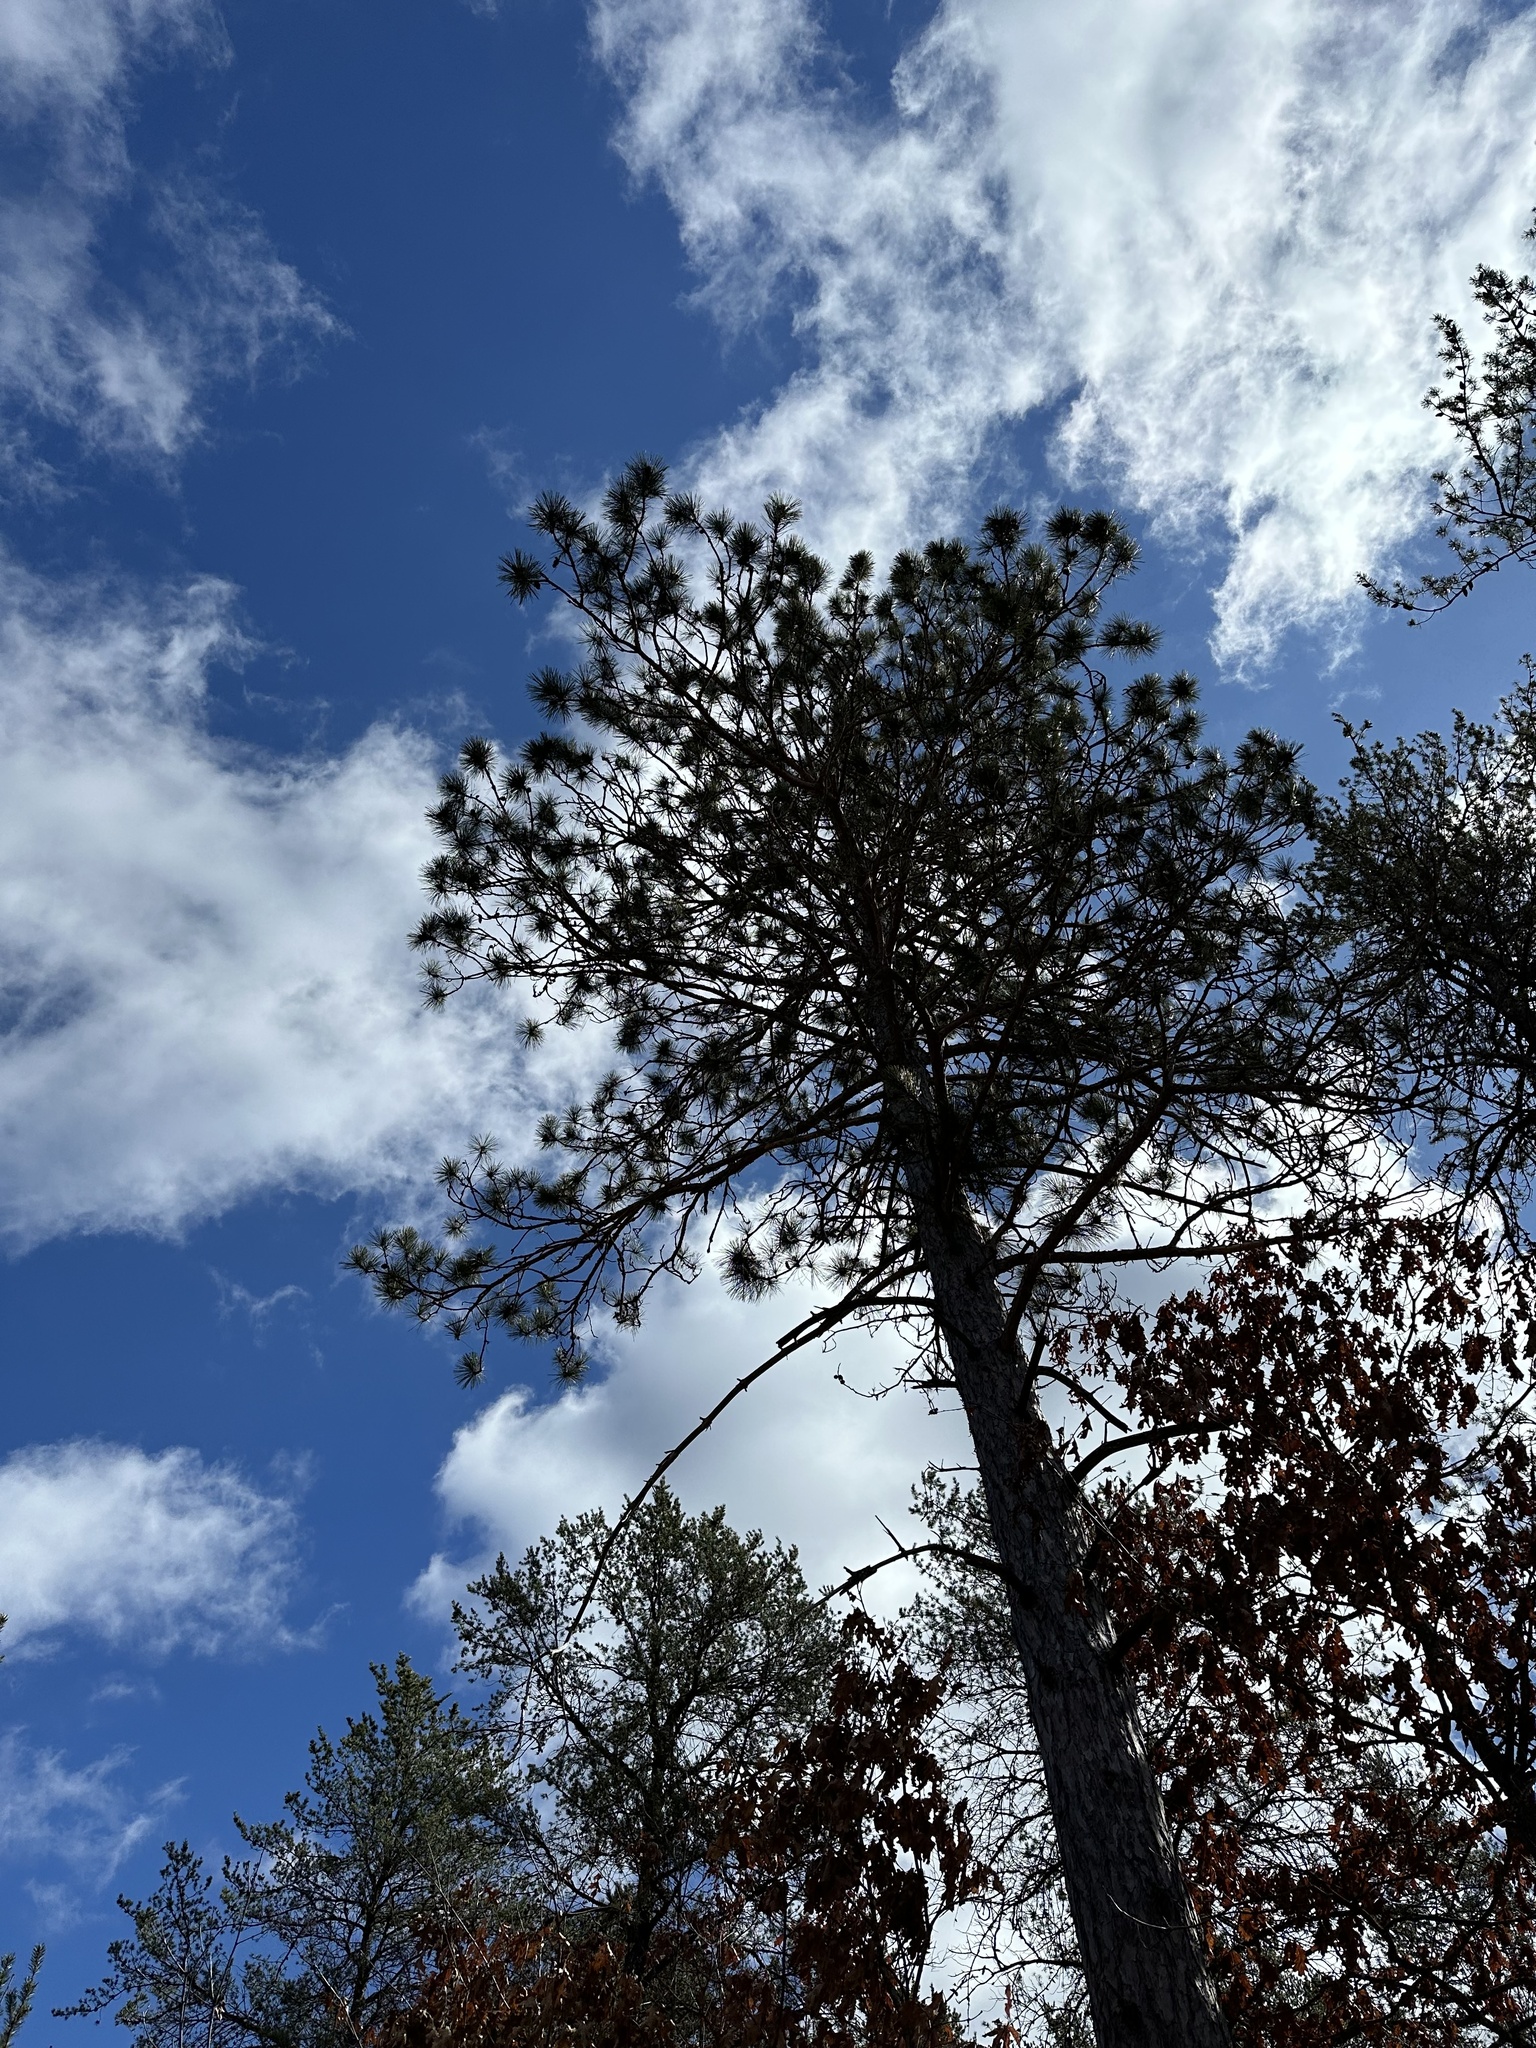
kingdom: Plantae
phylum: Tracheophyta
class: Pinopsida
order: Pinales
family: Pinaceae
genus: Pinus
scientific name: Pinus resinosa
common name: Norway pine
